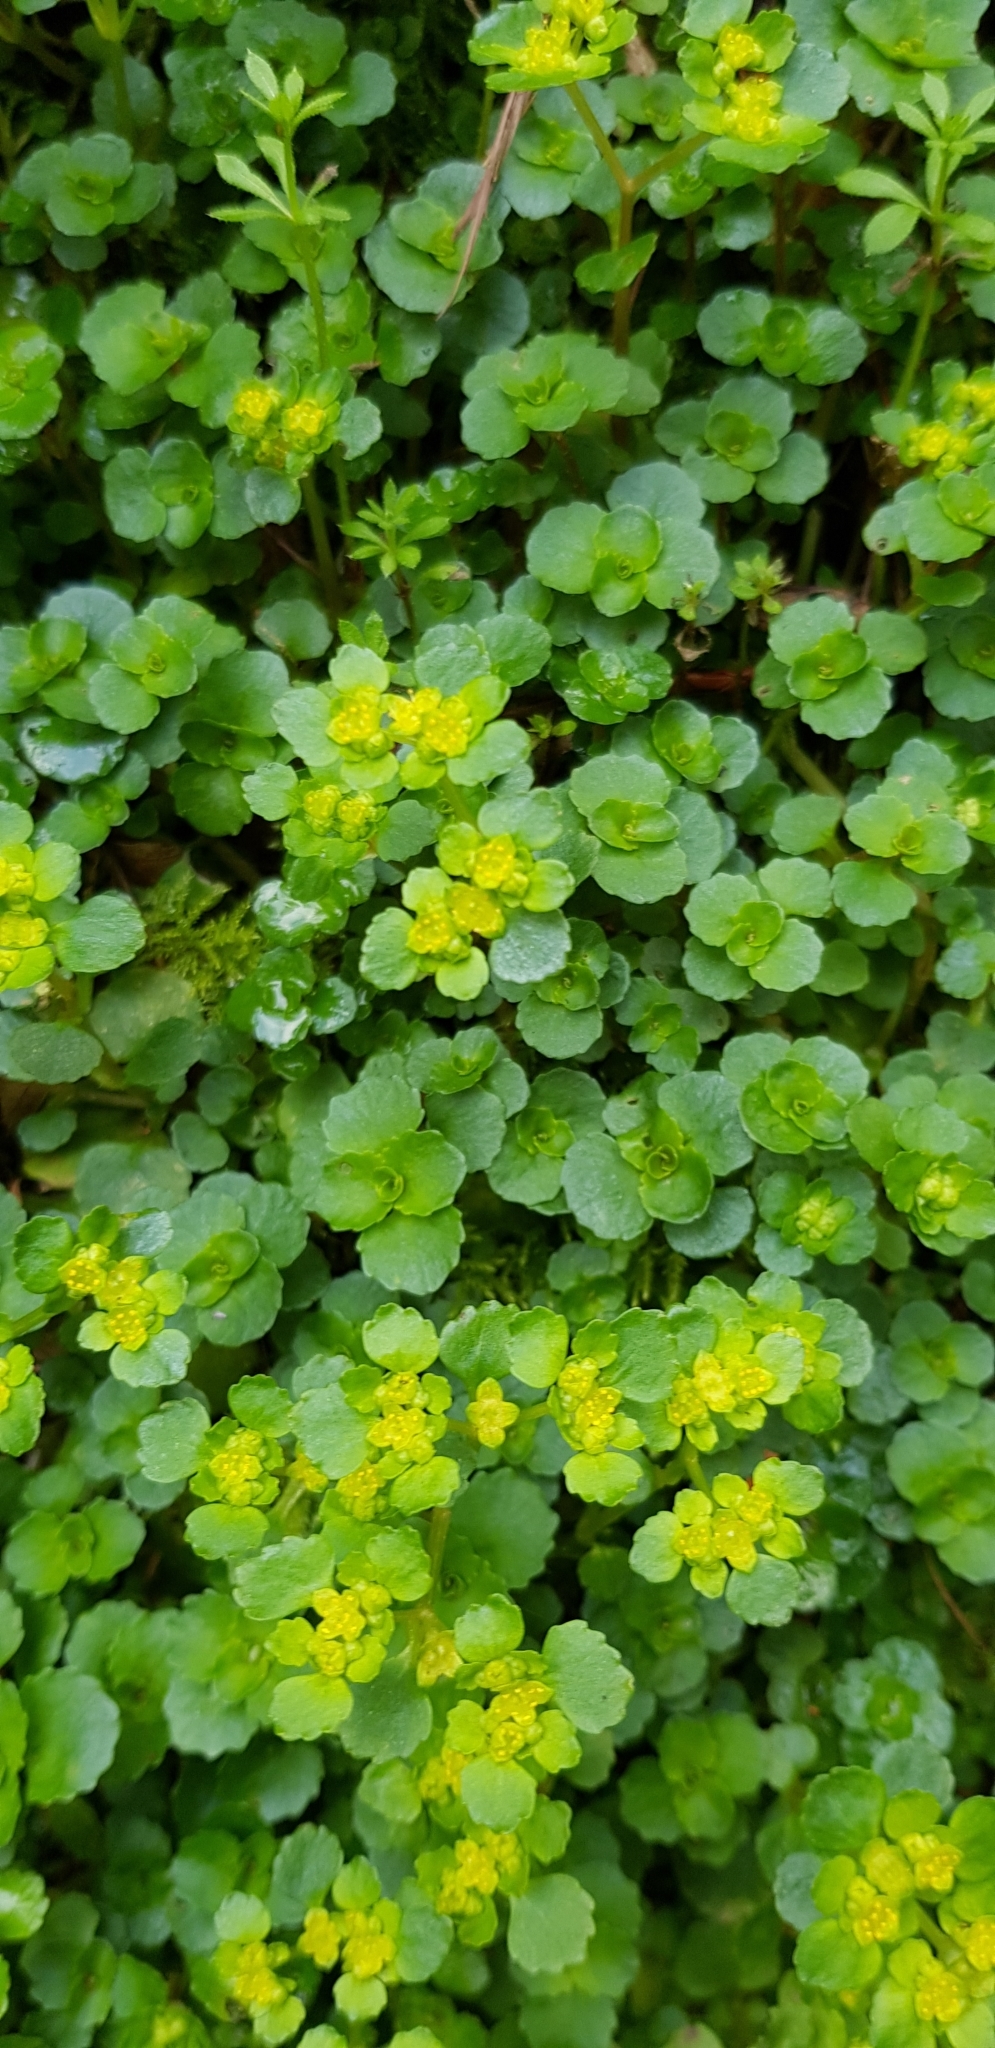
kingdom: Plantae
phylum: Tracheophyta
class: Magnoliopsida
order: Saxifragales
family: Saxifragaceae
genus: Chrysosplenium
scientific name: Chrysosplenium oppositifolium
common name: Opposite-leaved golden-saxifrage
